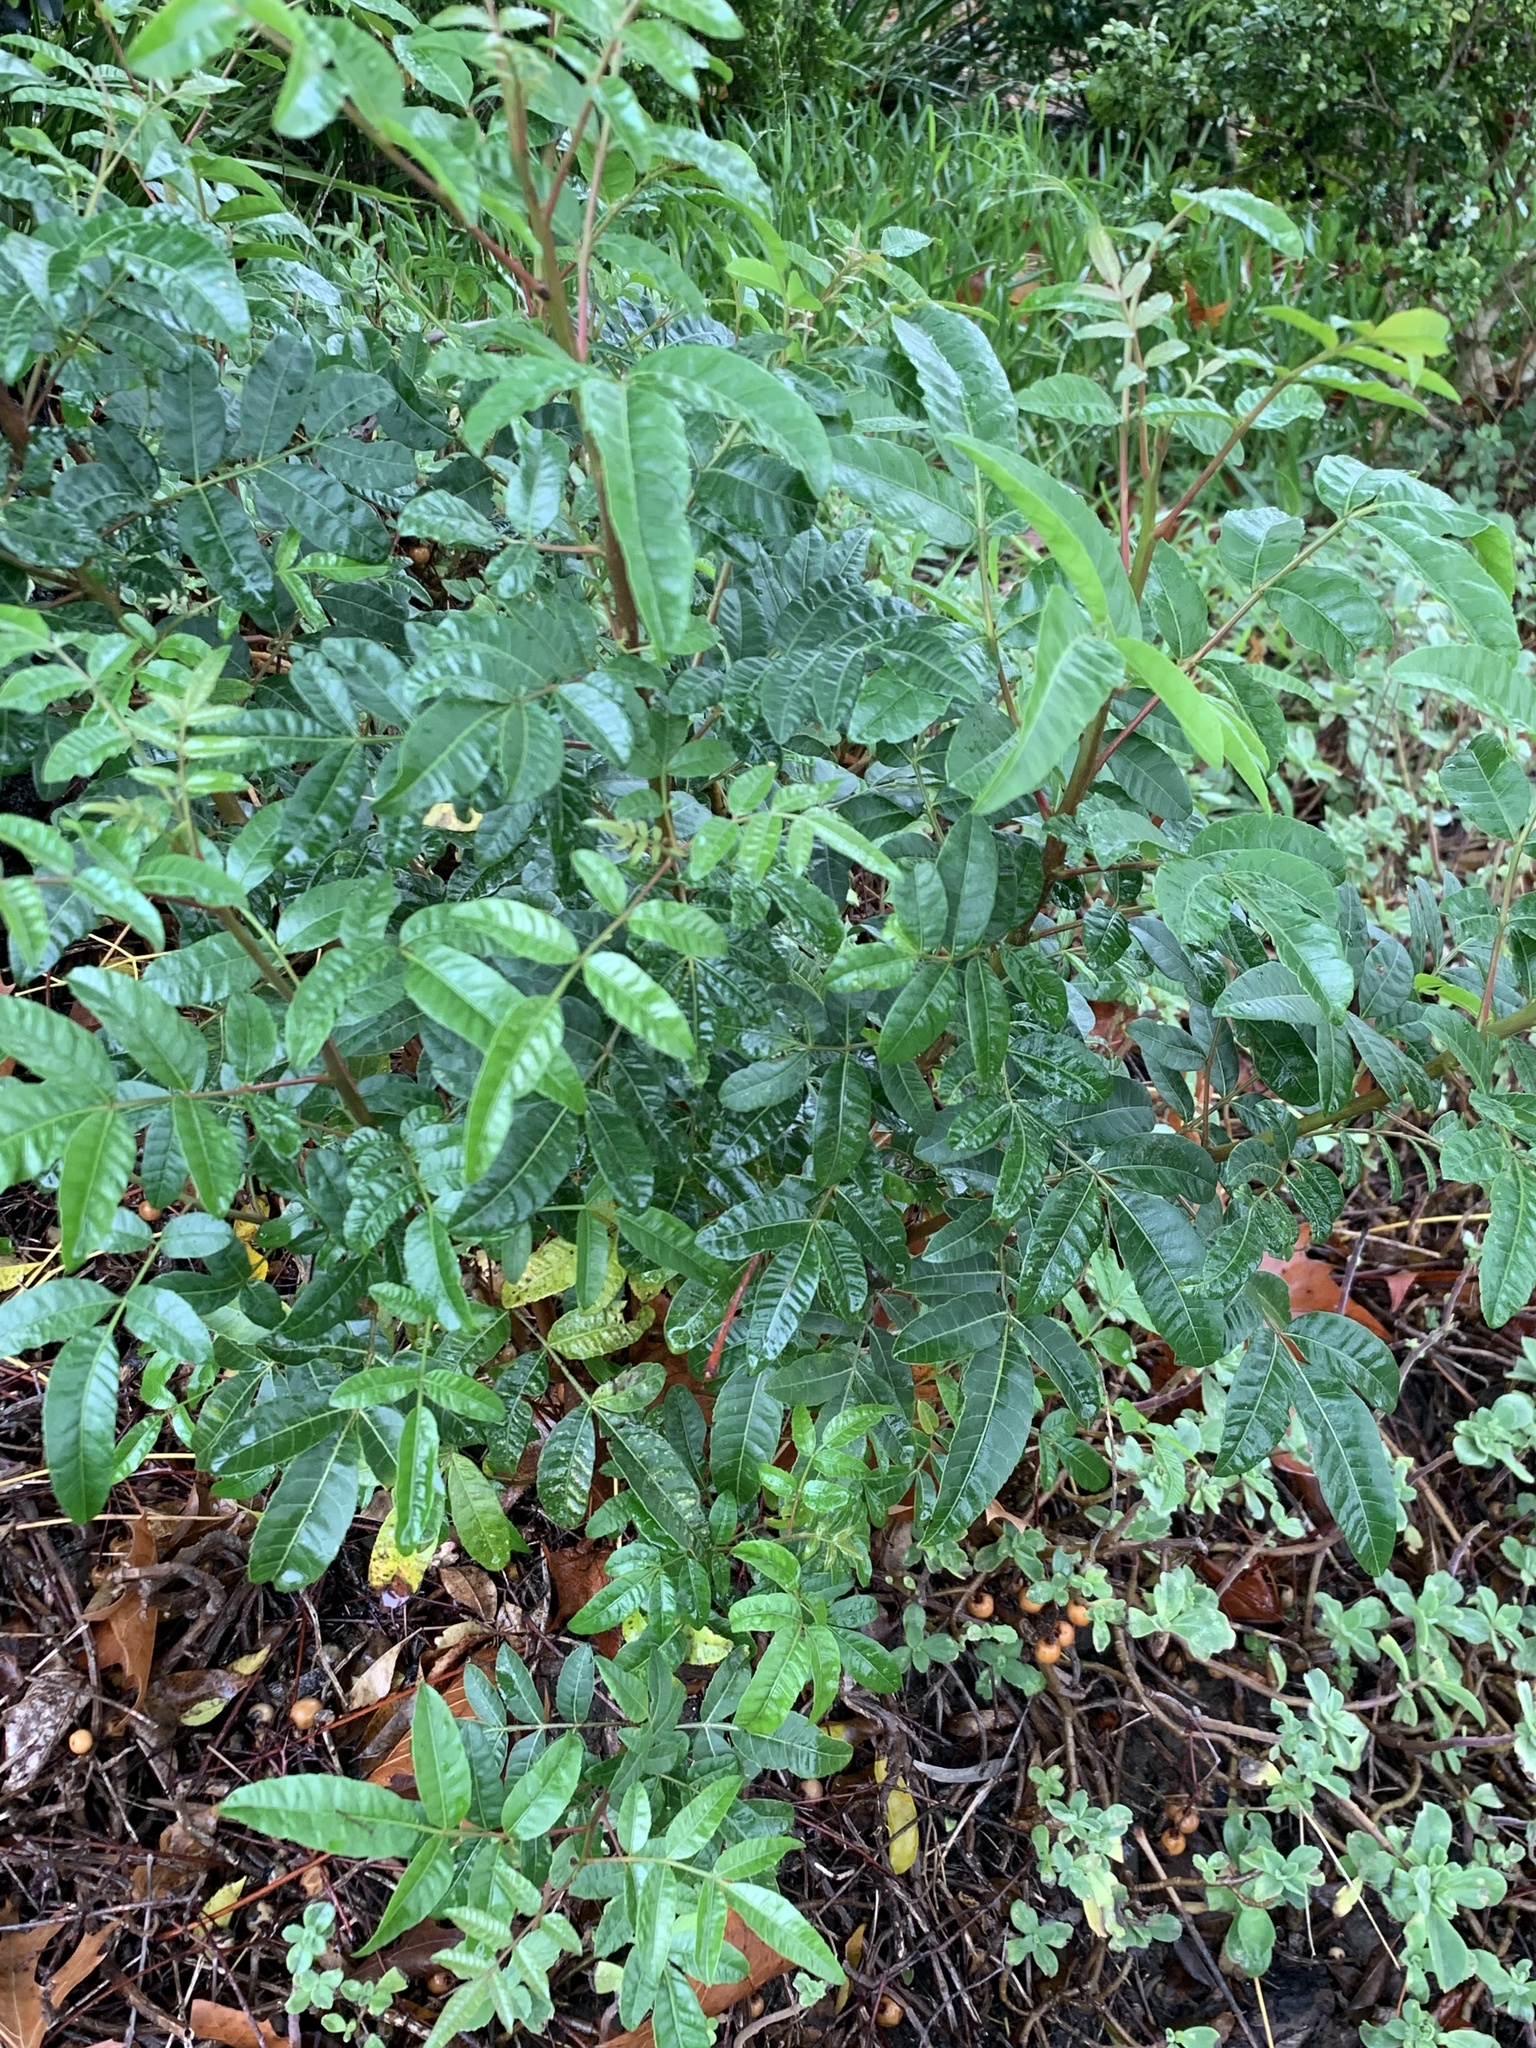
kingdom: Plantae
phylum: Tracheophyta
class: Magnoliopsida
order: Sapindales
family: Anacardiaceae
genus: Schinus
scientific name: Schinus terebinthifolia
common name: Brazilian peppertree
